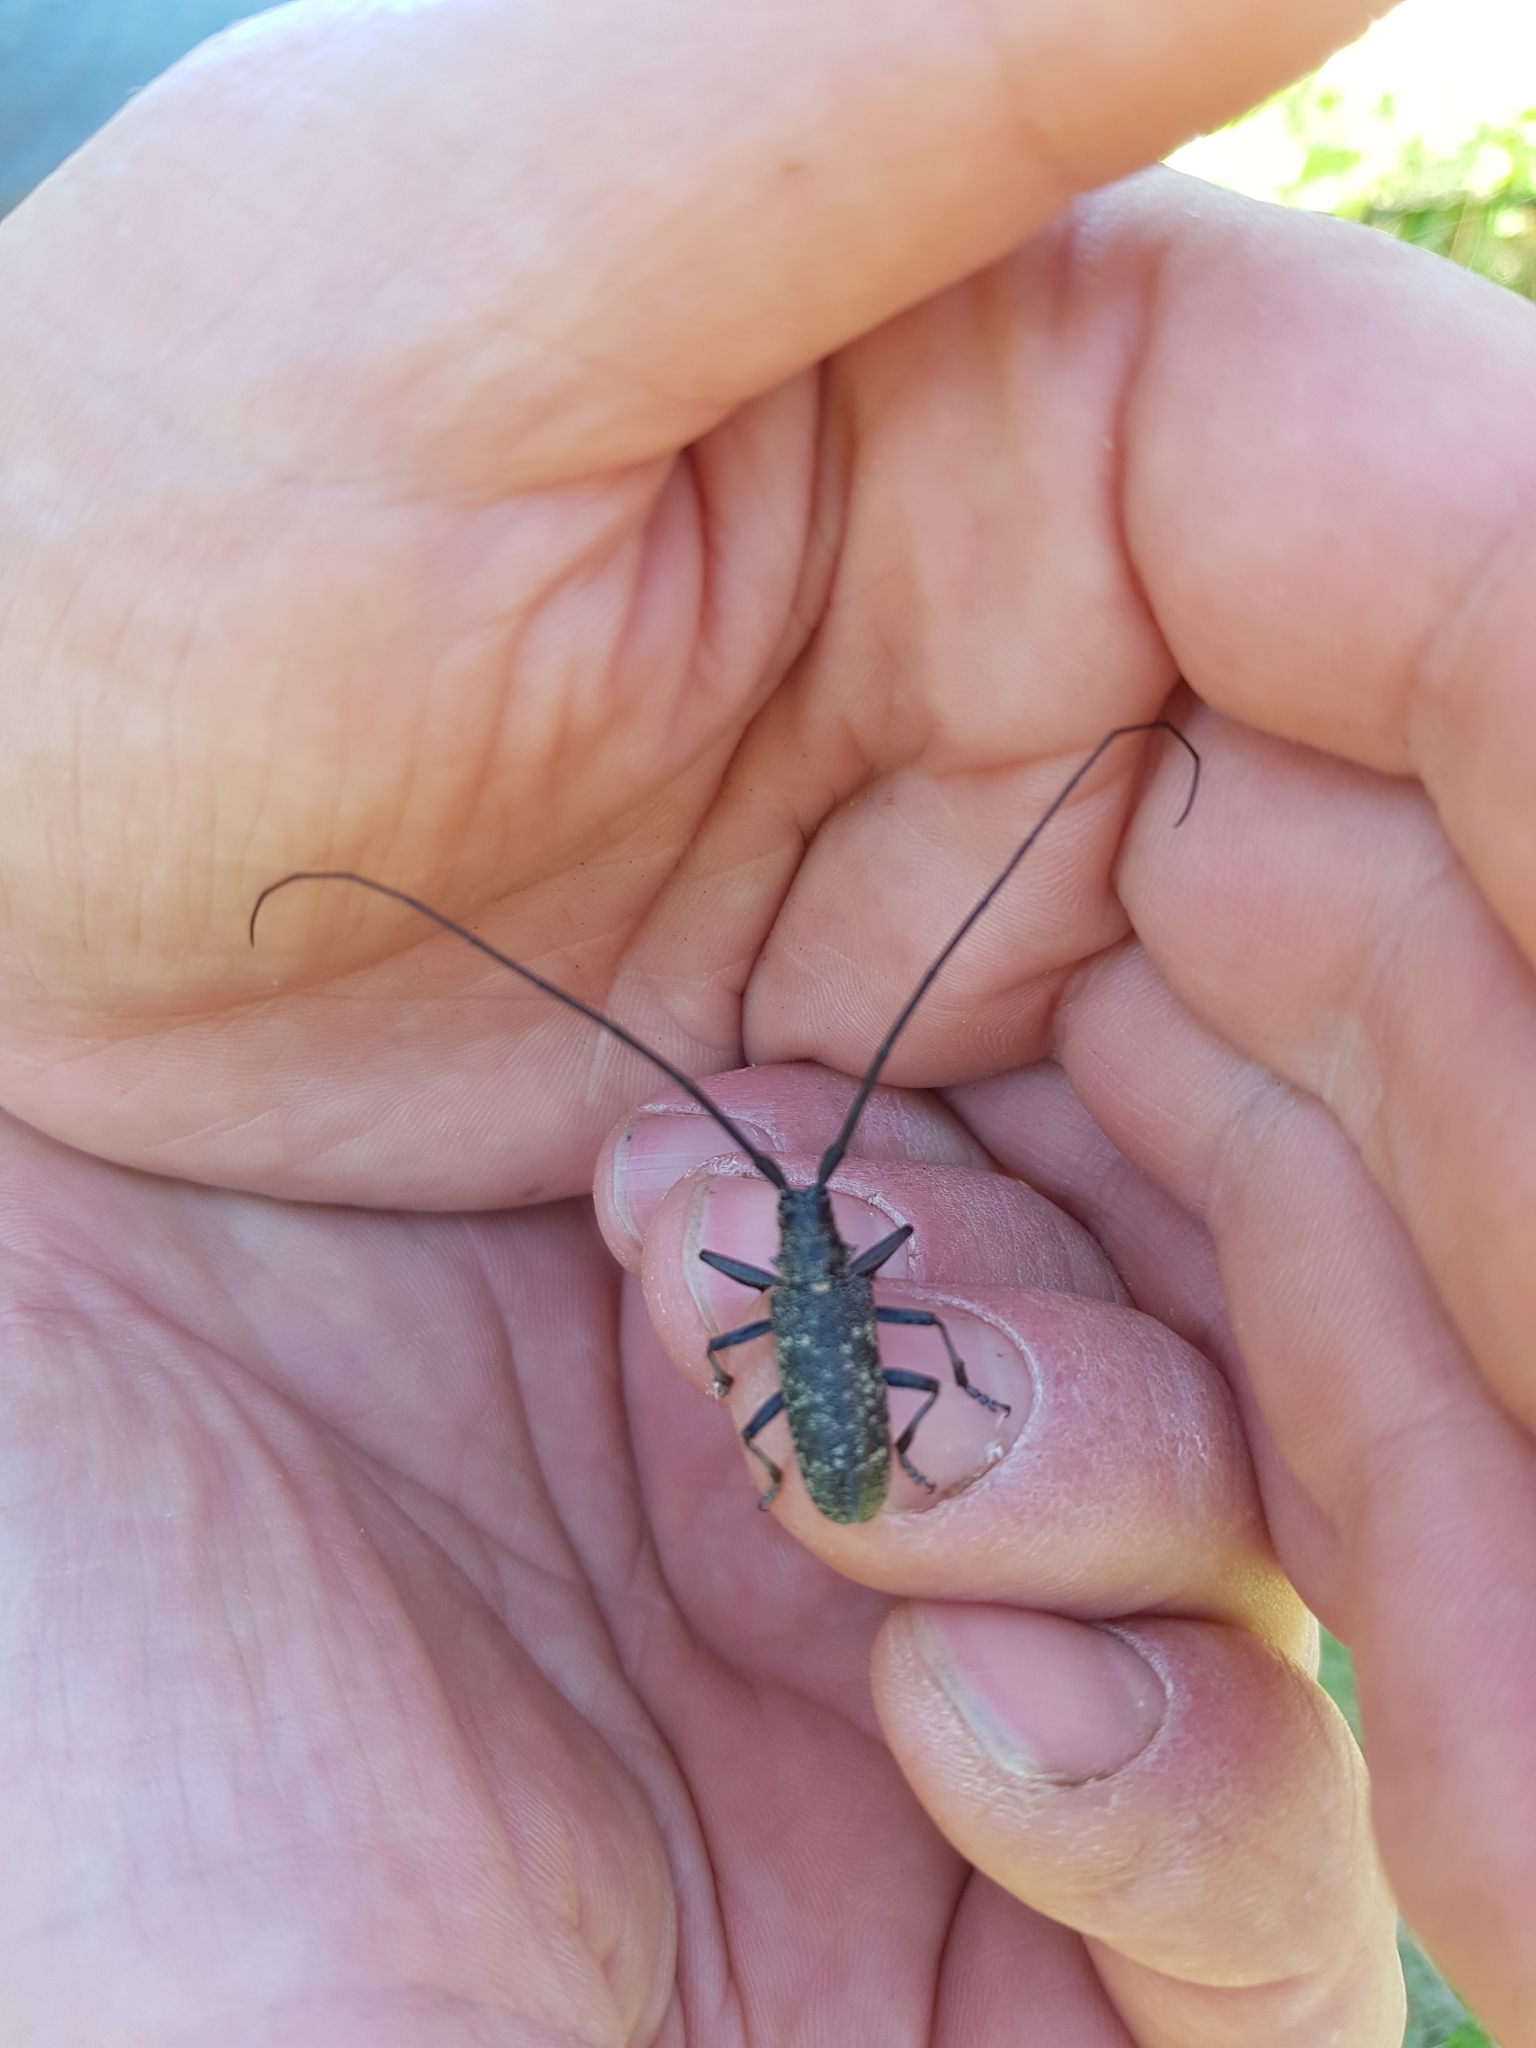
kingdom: Animalia
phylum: Arthropoda
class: Insecta
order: Coleoptera
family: Cerambycidae
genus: Monochamus
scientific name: Monochamus sutor
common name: Pine sawyer
